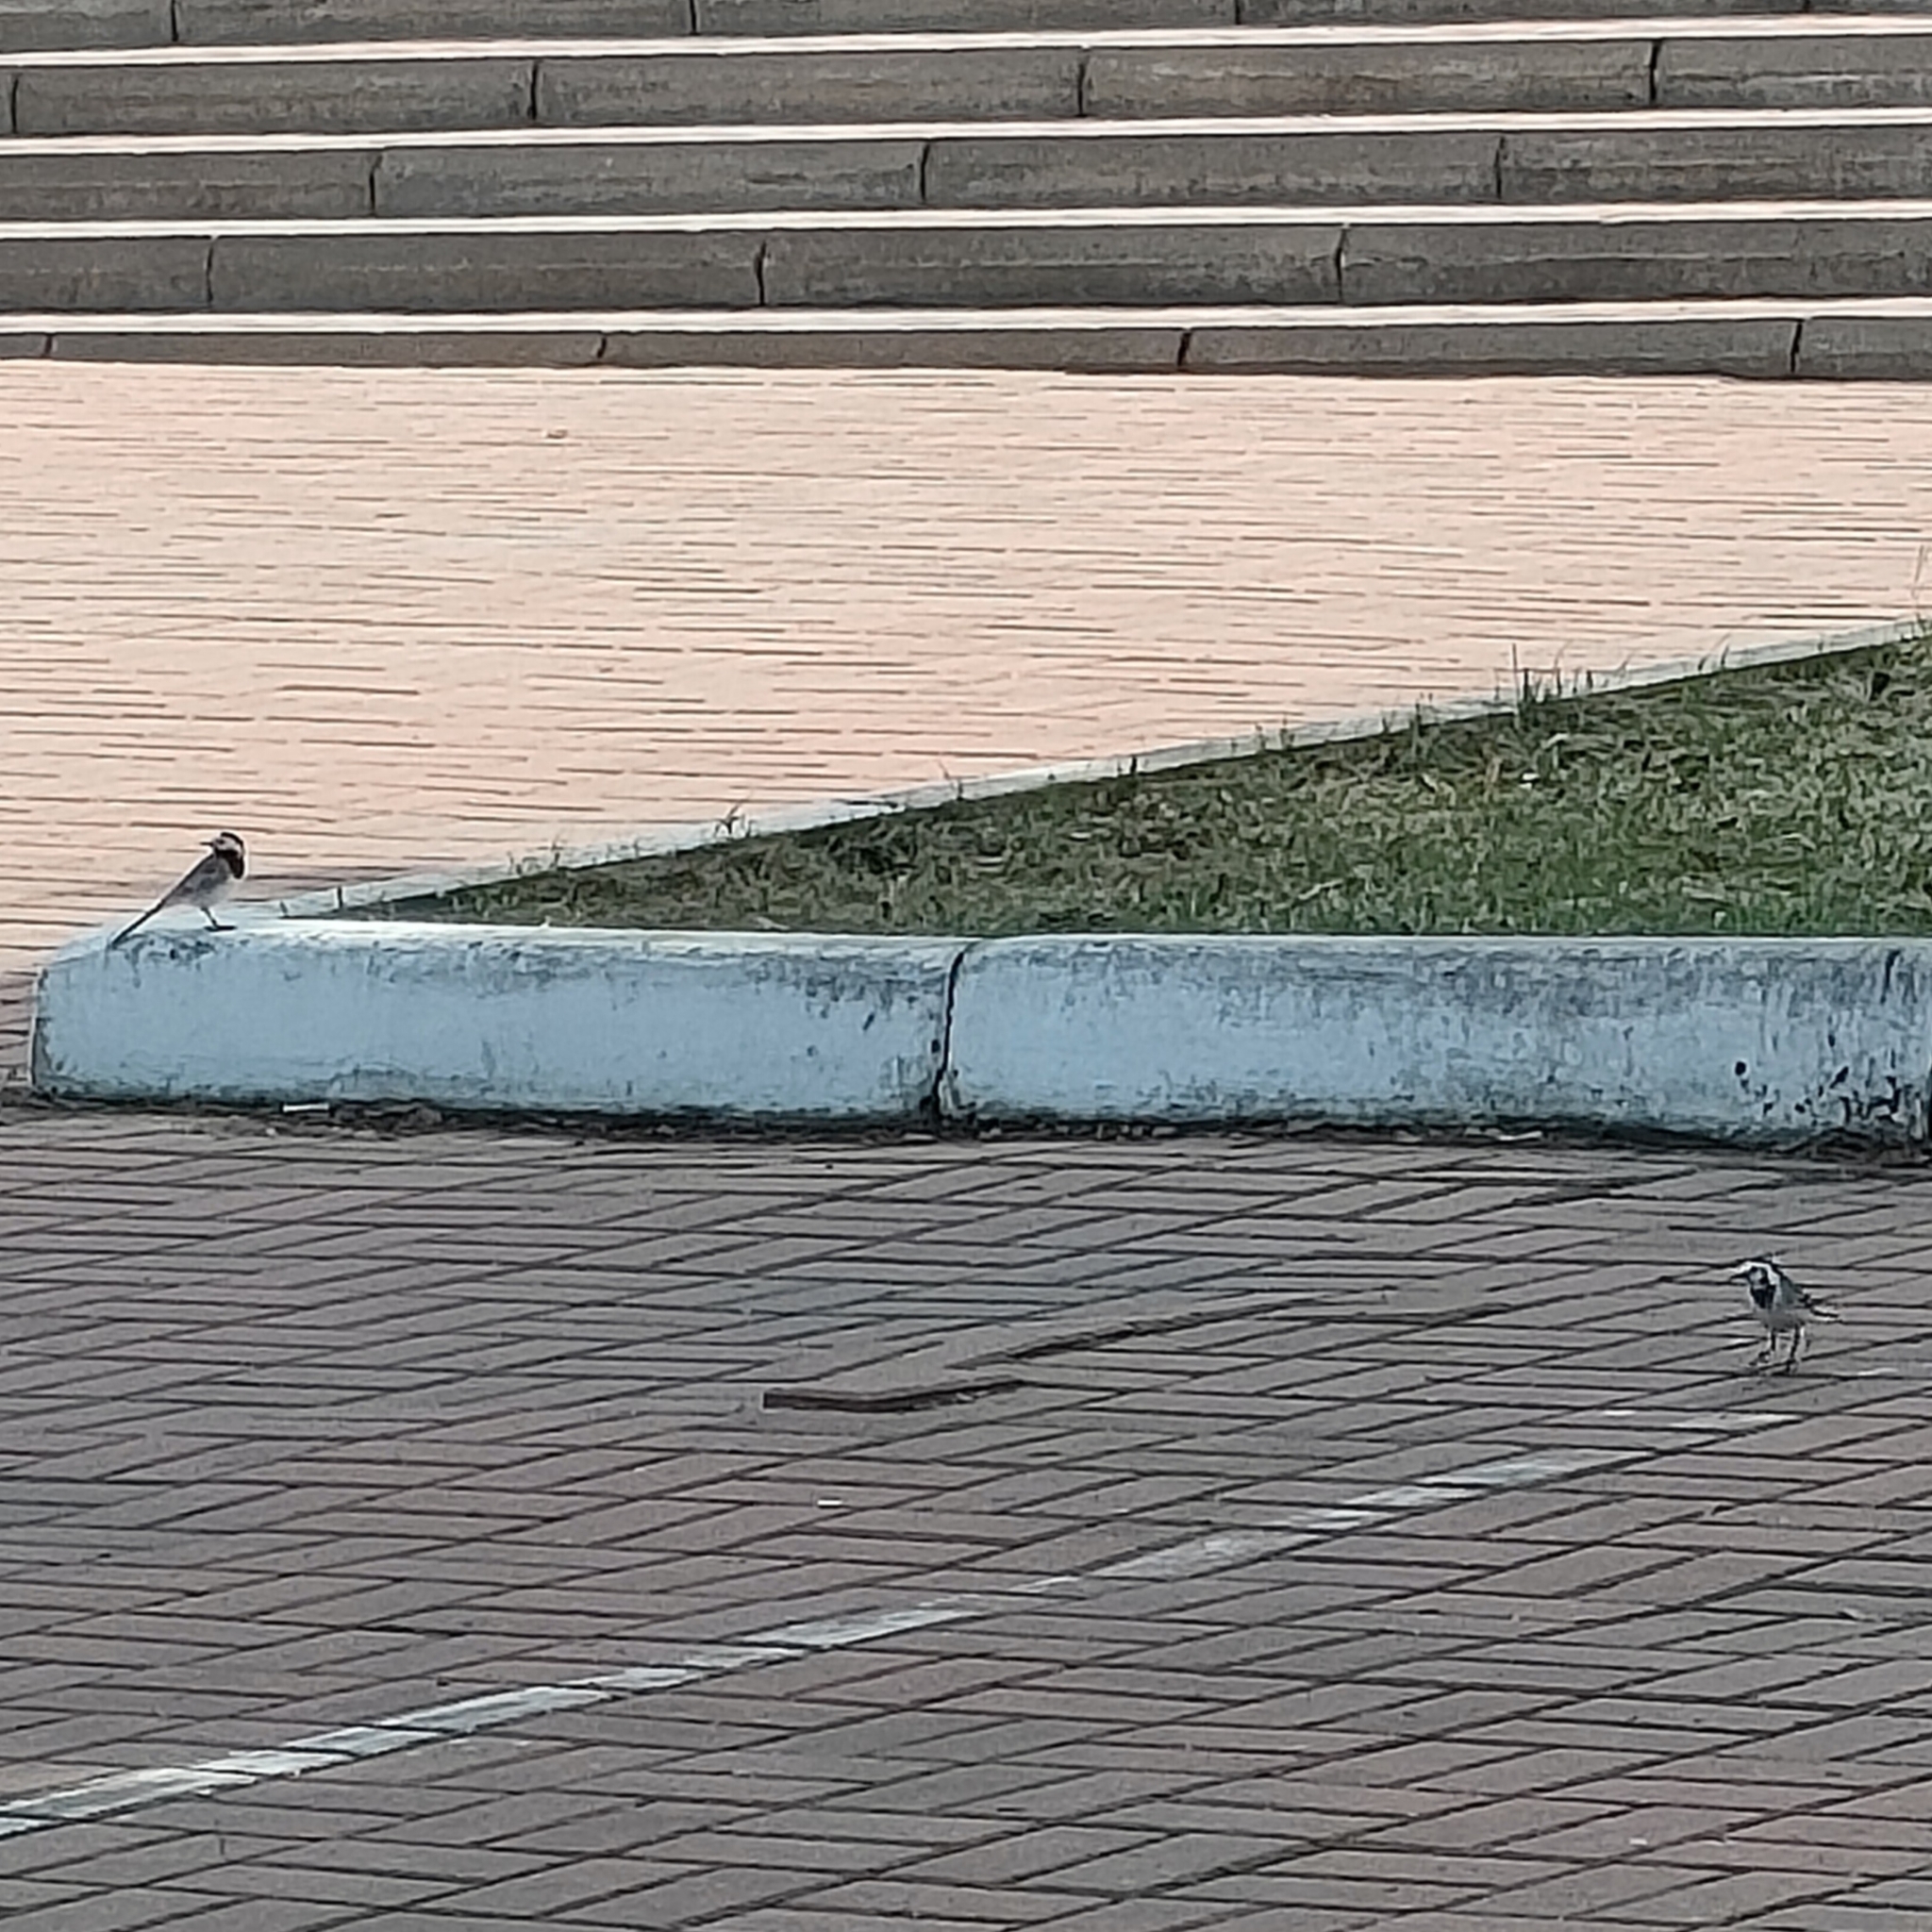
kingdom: Animalia
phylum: Chordata
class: Aves
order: Passeriformes
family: Motacillidae
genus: Motacilla
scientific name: Motacilla alba
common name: White wagtail
